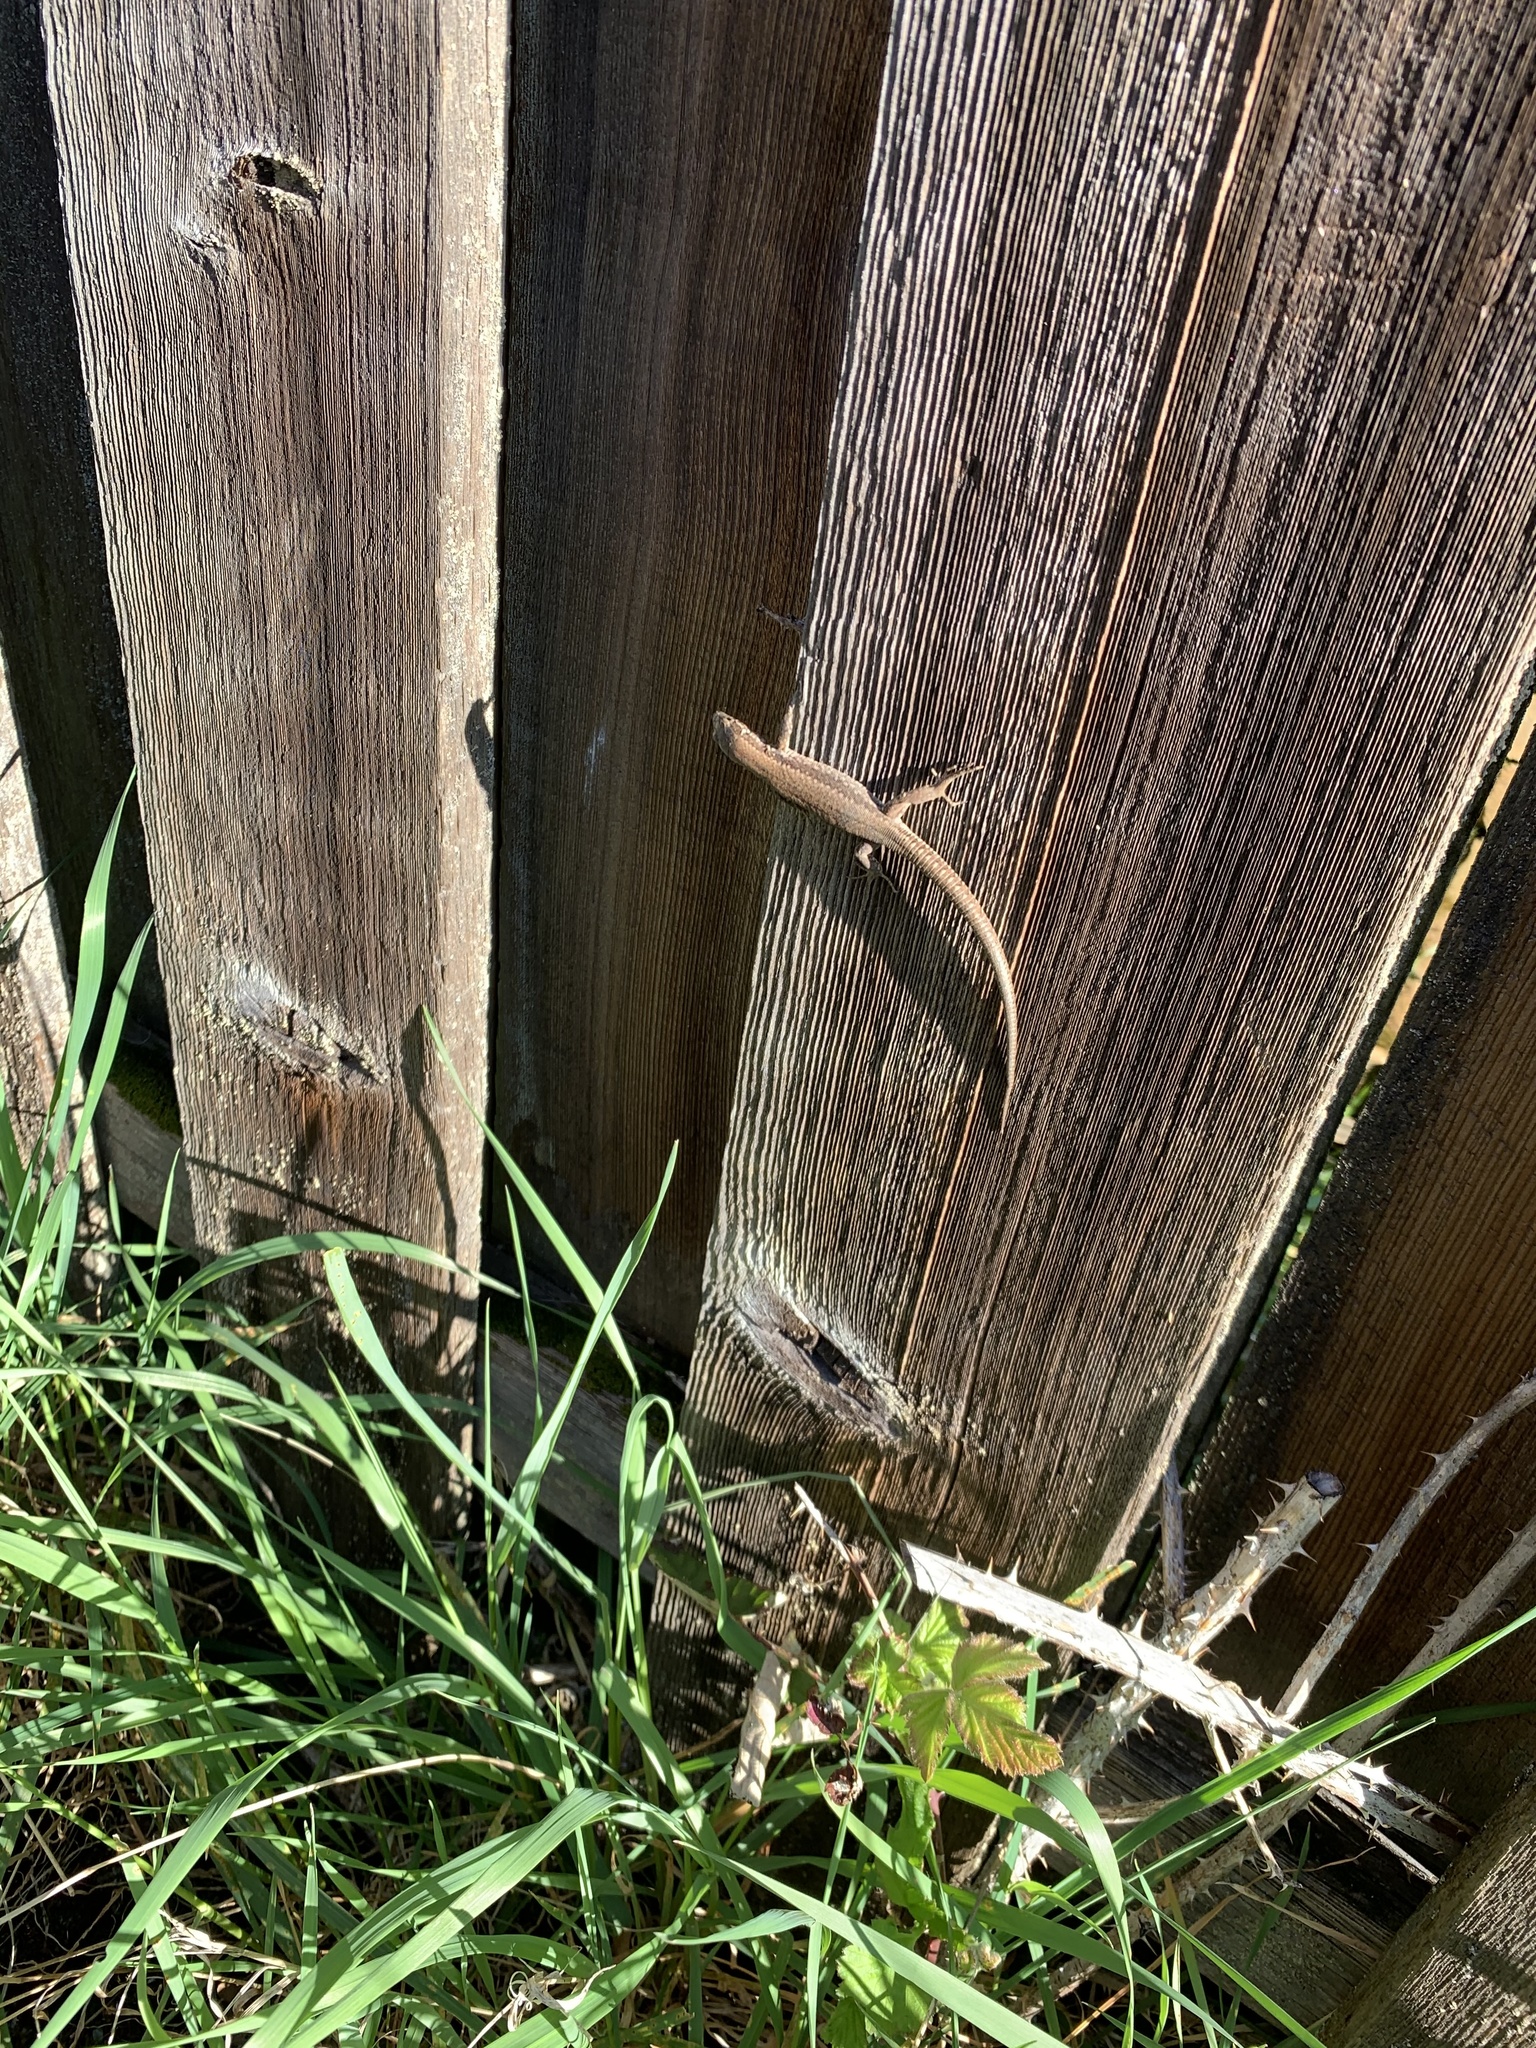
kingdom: Animalia
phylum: Chordata
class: Squamata
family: Lacertidae
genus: Podarcis
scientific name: Podarcis muralis
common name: Common wall lizard
